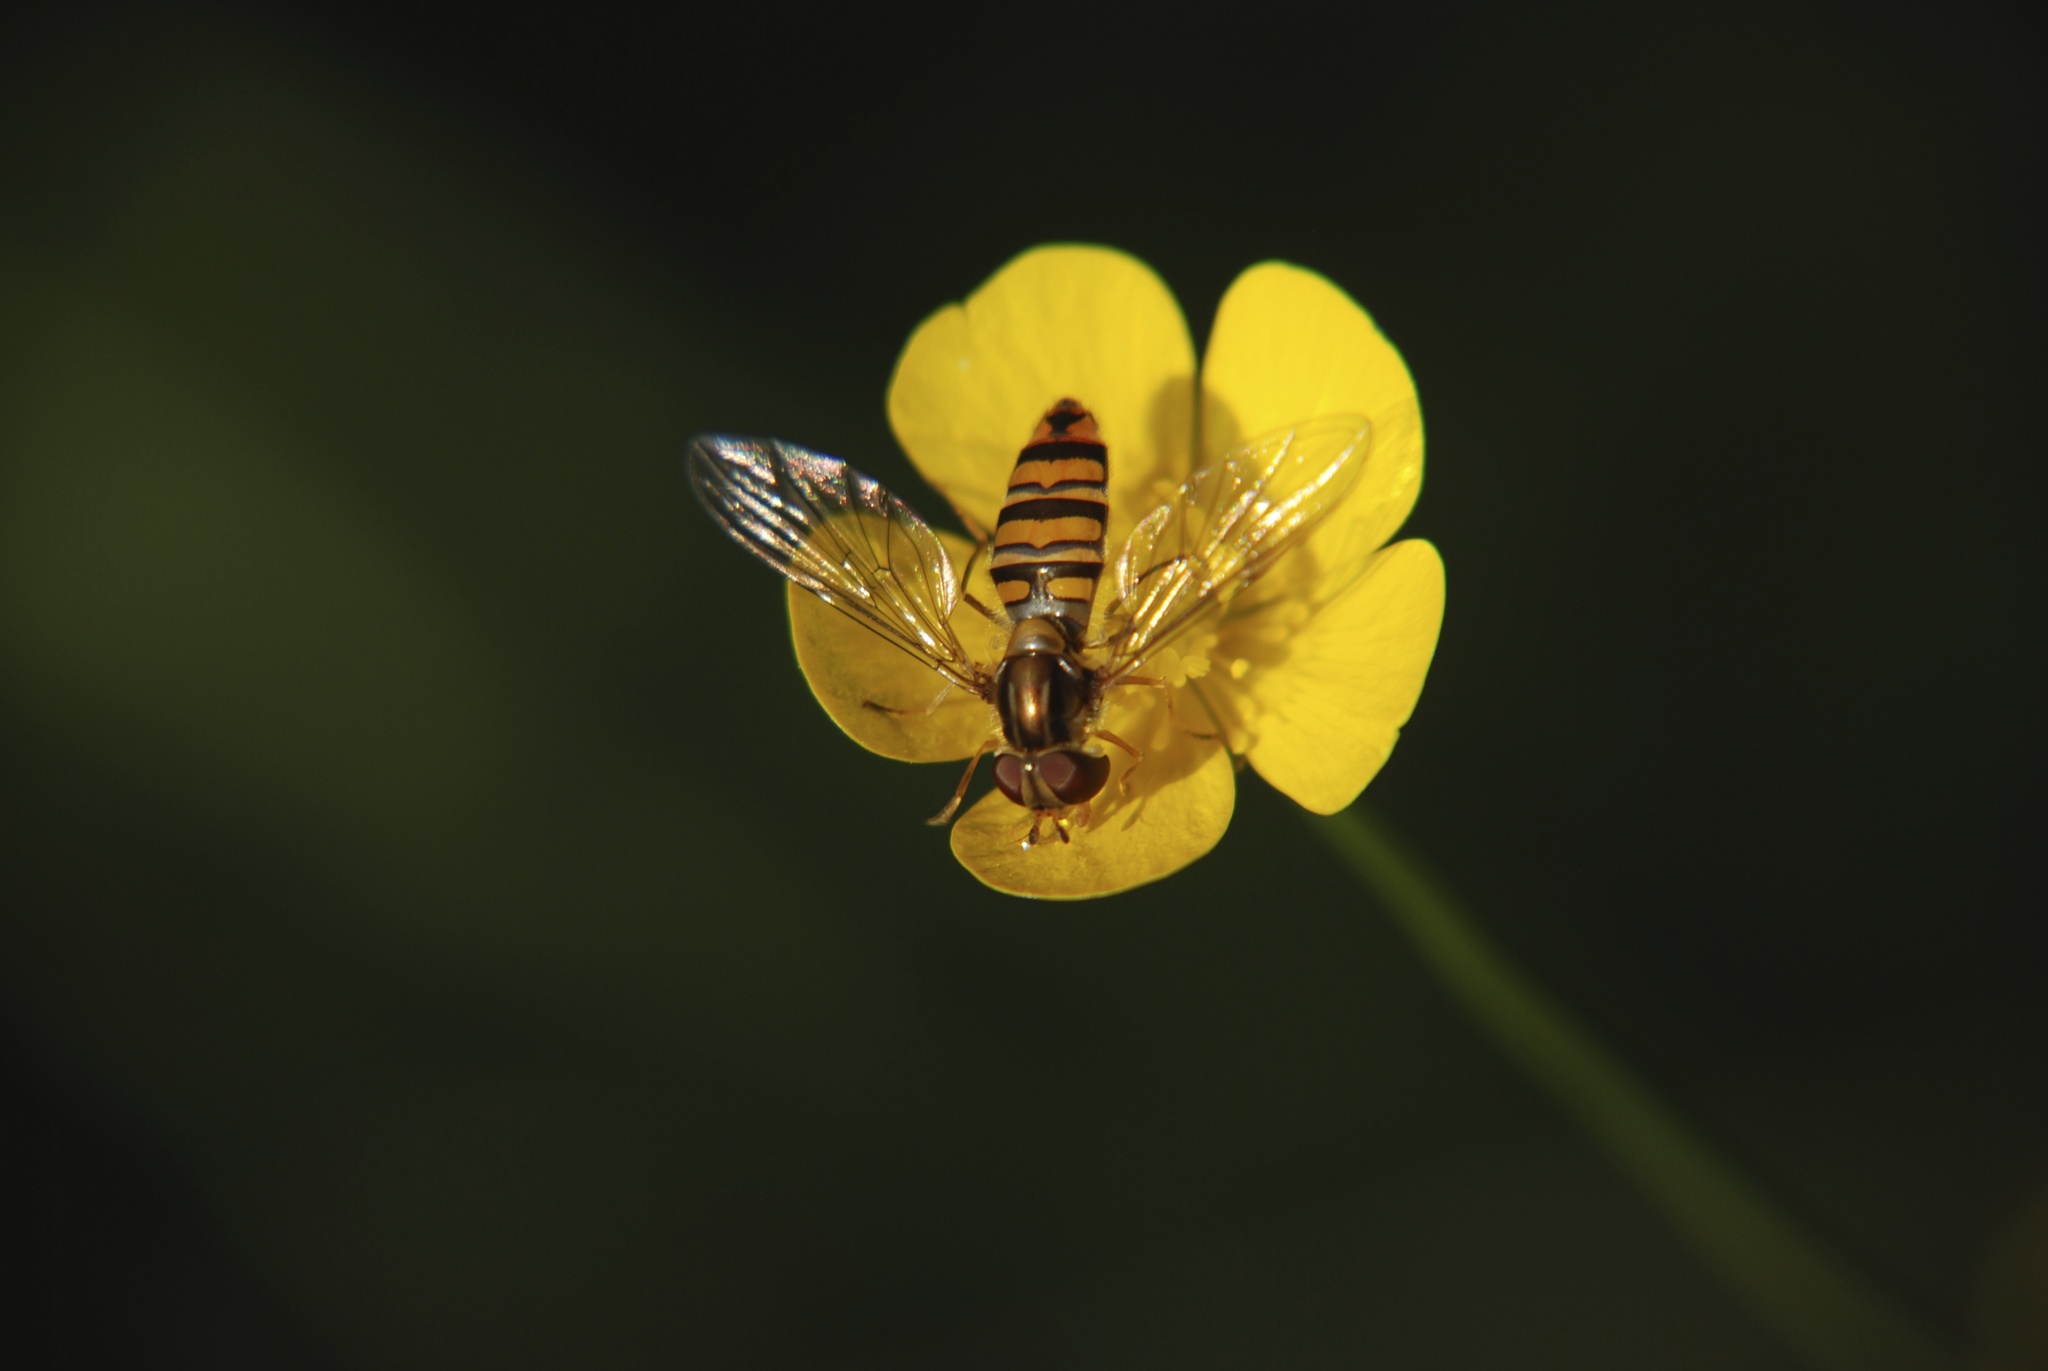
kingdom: Animalia
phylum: Arthropoda
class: Insecta
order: Diptera
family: Syrphidae
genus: Episyrphus
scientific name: Episyrphus balteatus
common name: Marmalade hoverfly
